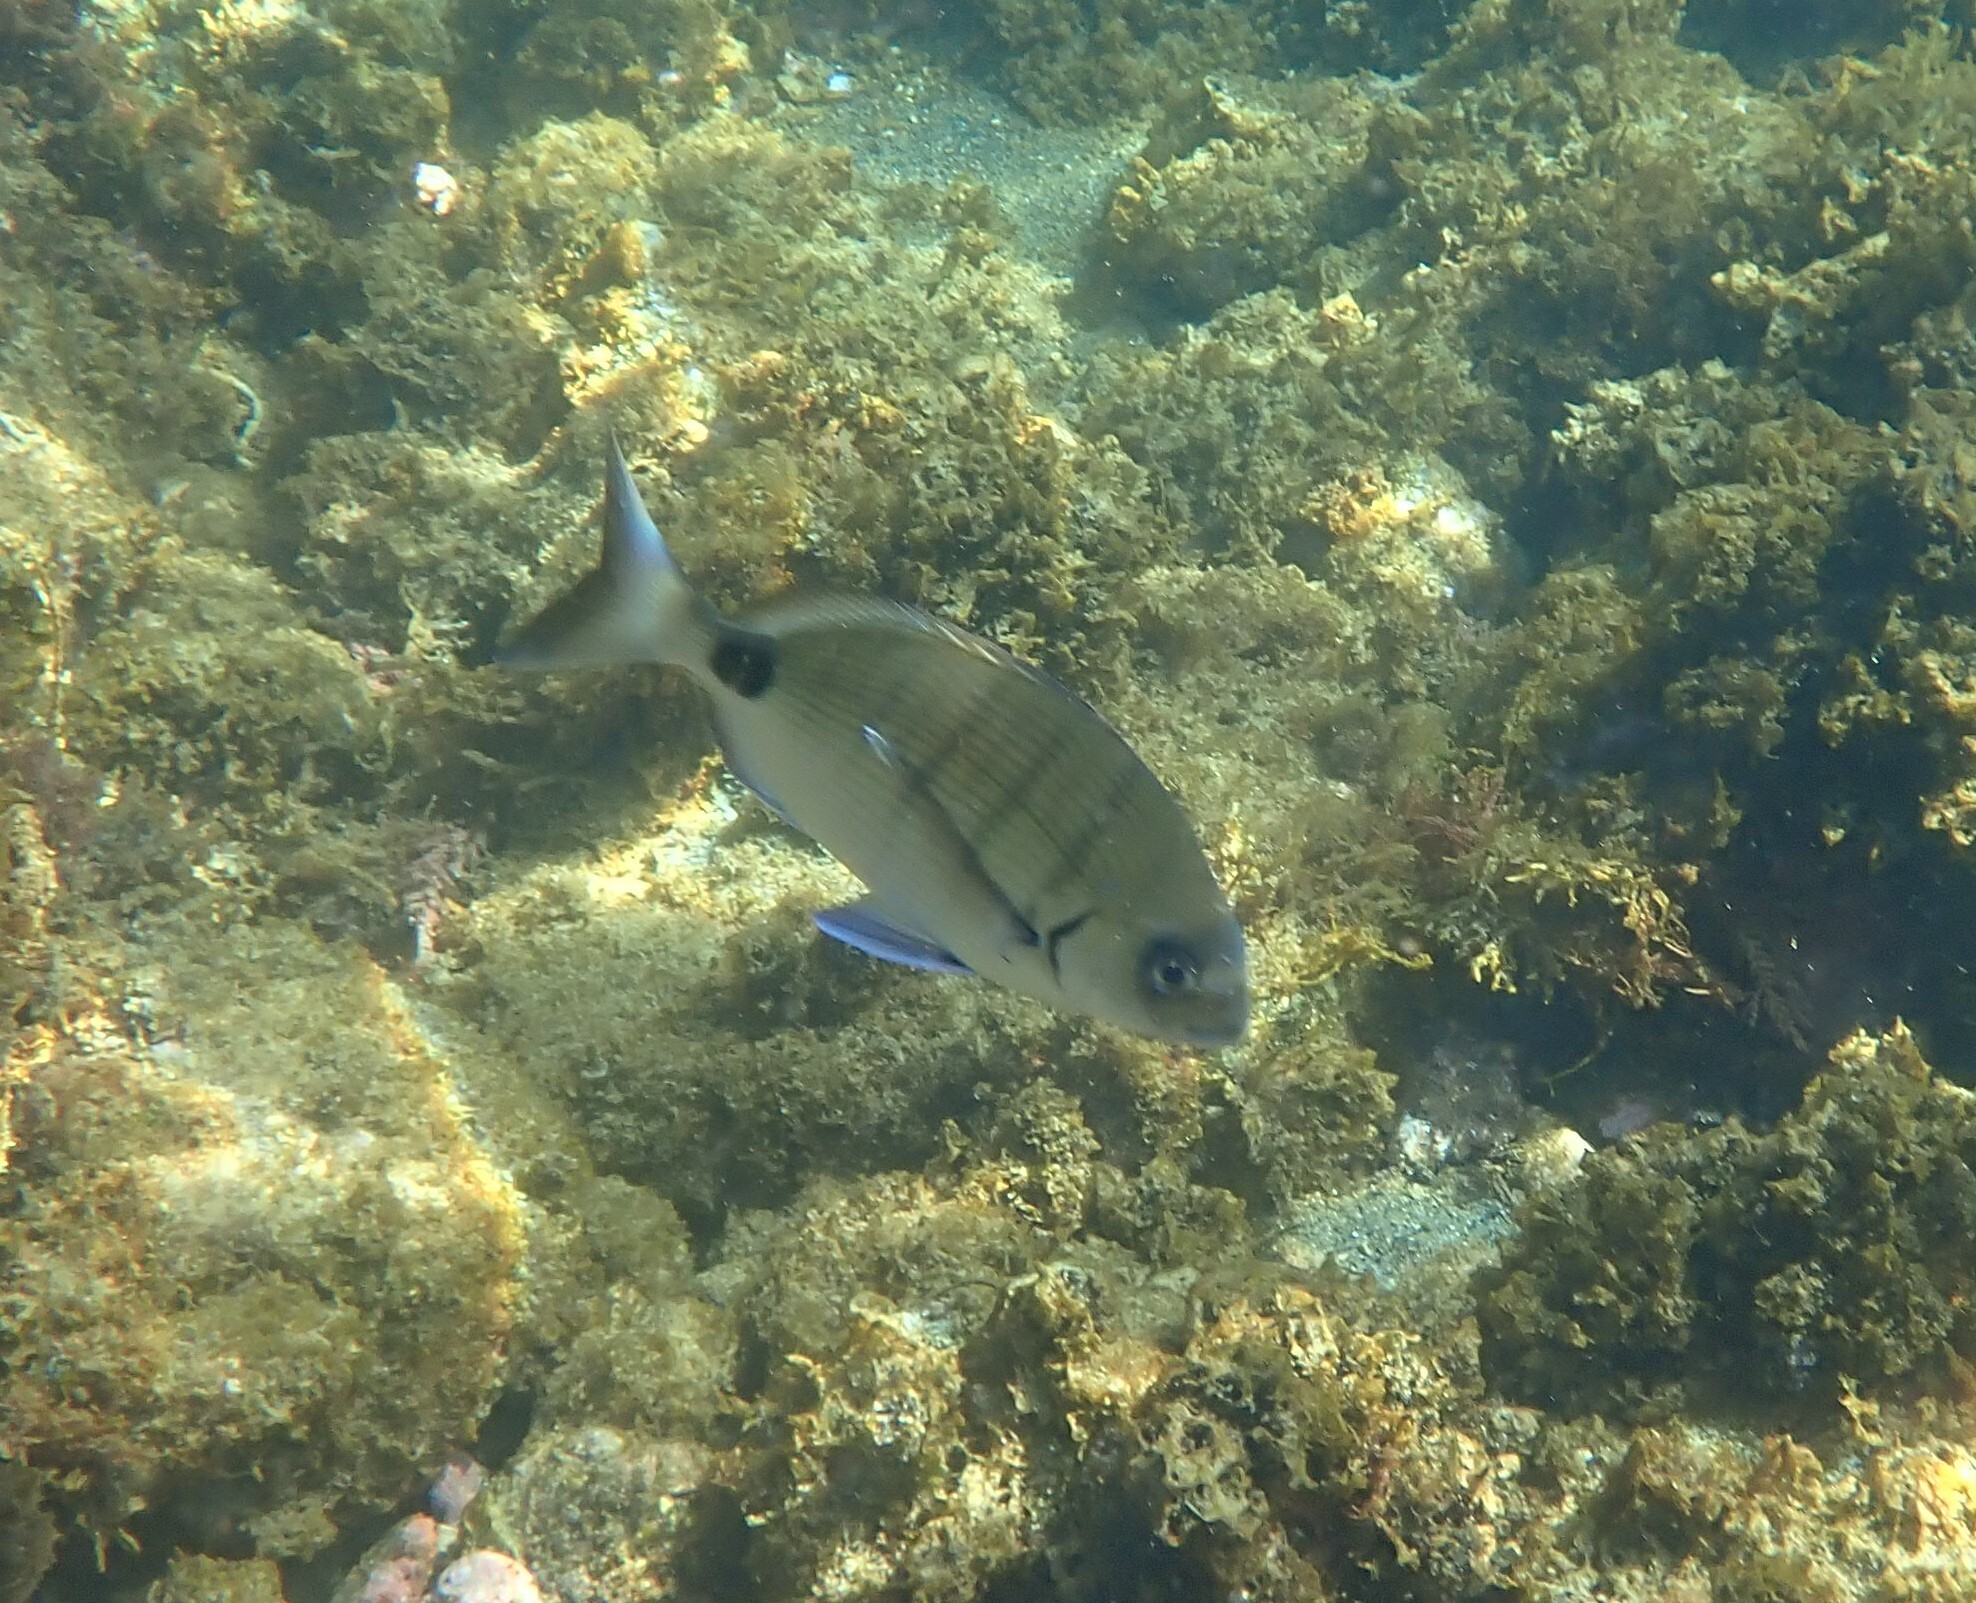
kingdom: Animalia
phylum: Chordata
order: Perciformes
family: Sparidae
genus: Diplodus
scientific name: Diplodus cadenati
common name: Moroccan white seabream
